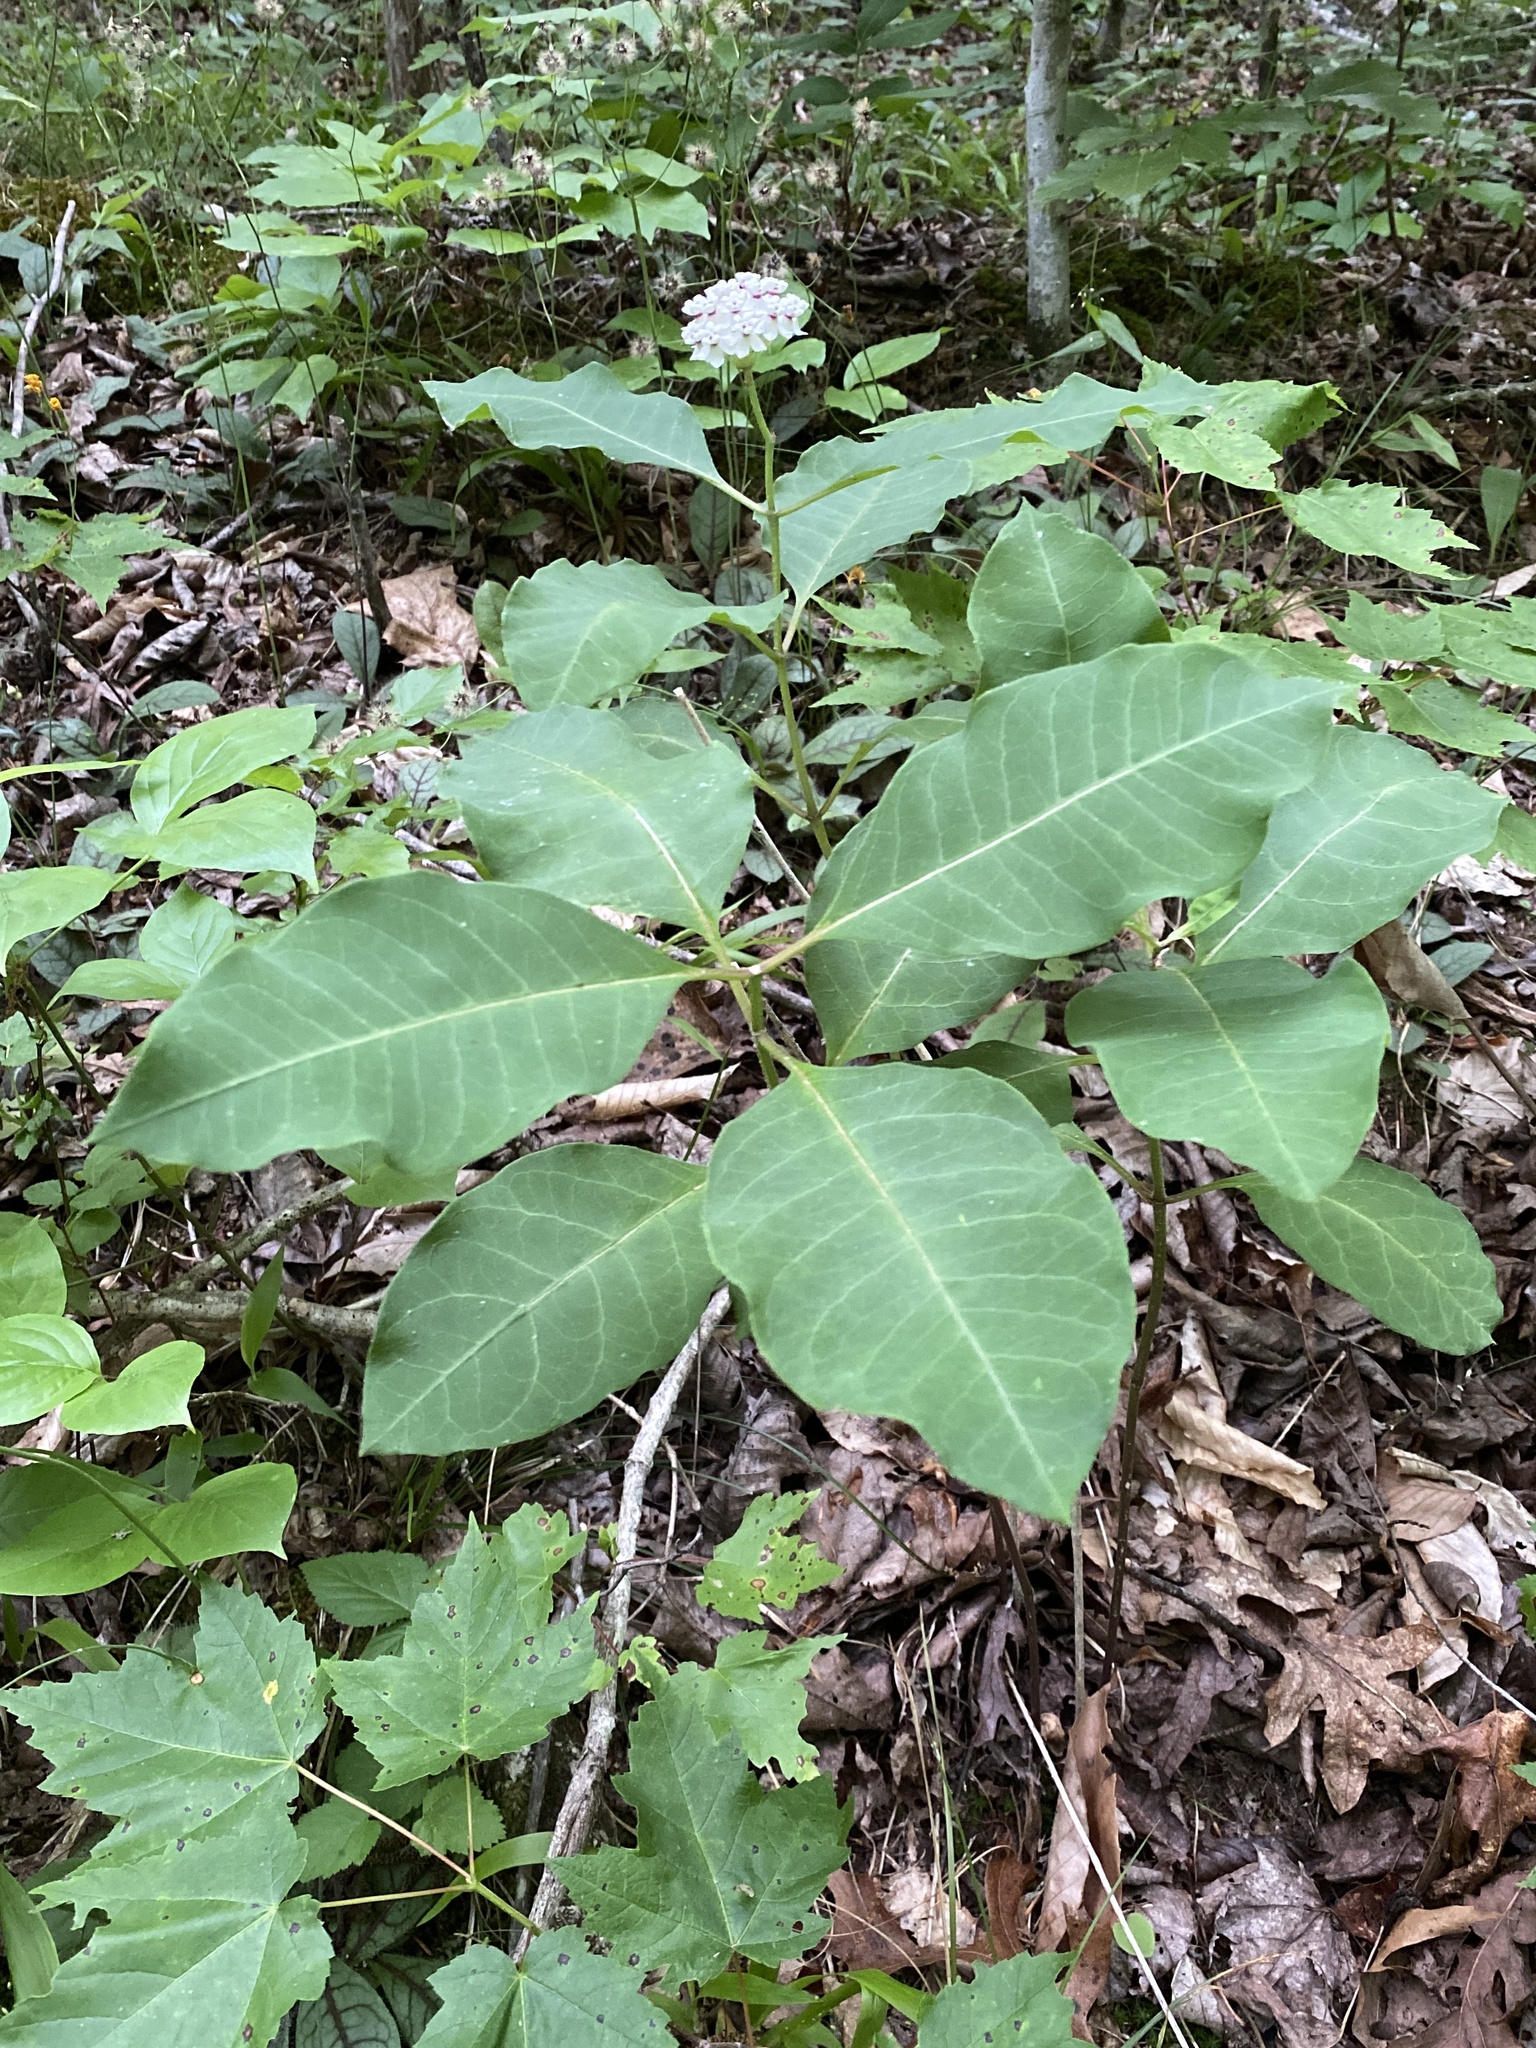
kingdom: Plantae
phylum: Tracheophyta
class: Magnoliopsida
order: Gentianales
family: Apocynaceae
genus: Asclepias
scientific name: Asclepias variegata
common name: Variegated milkweed
